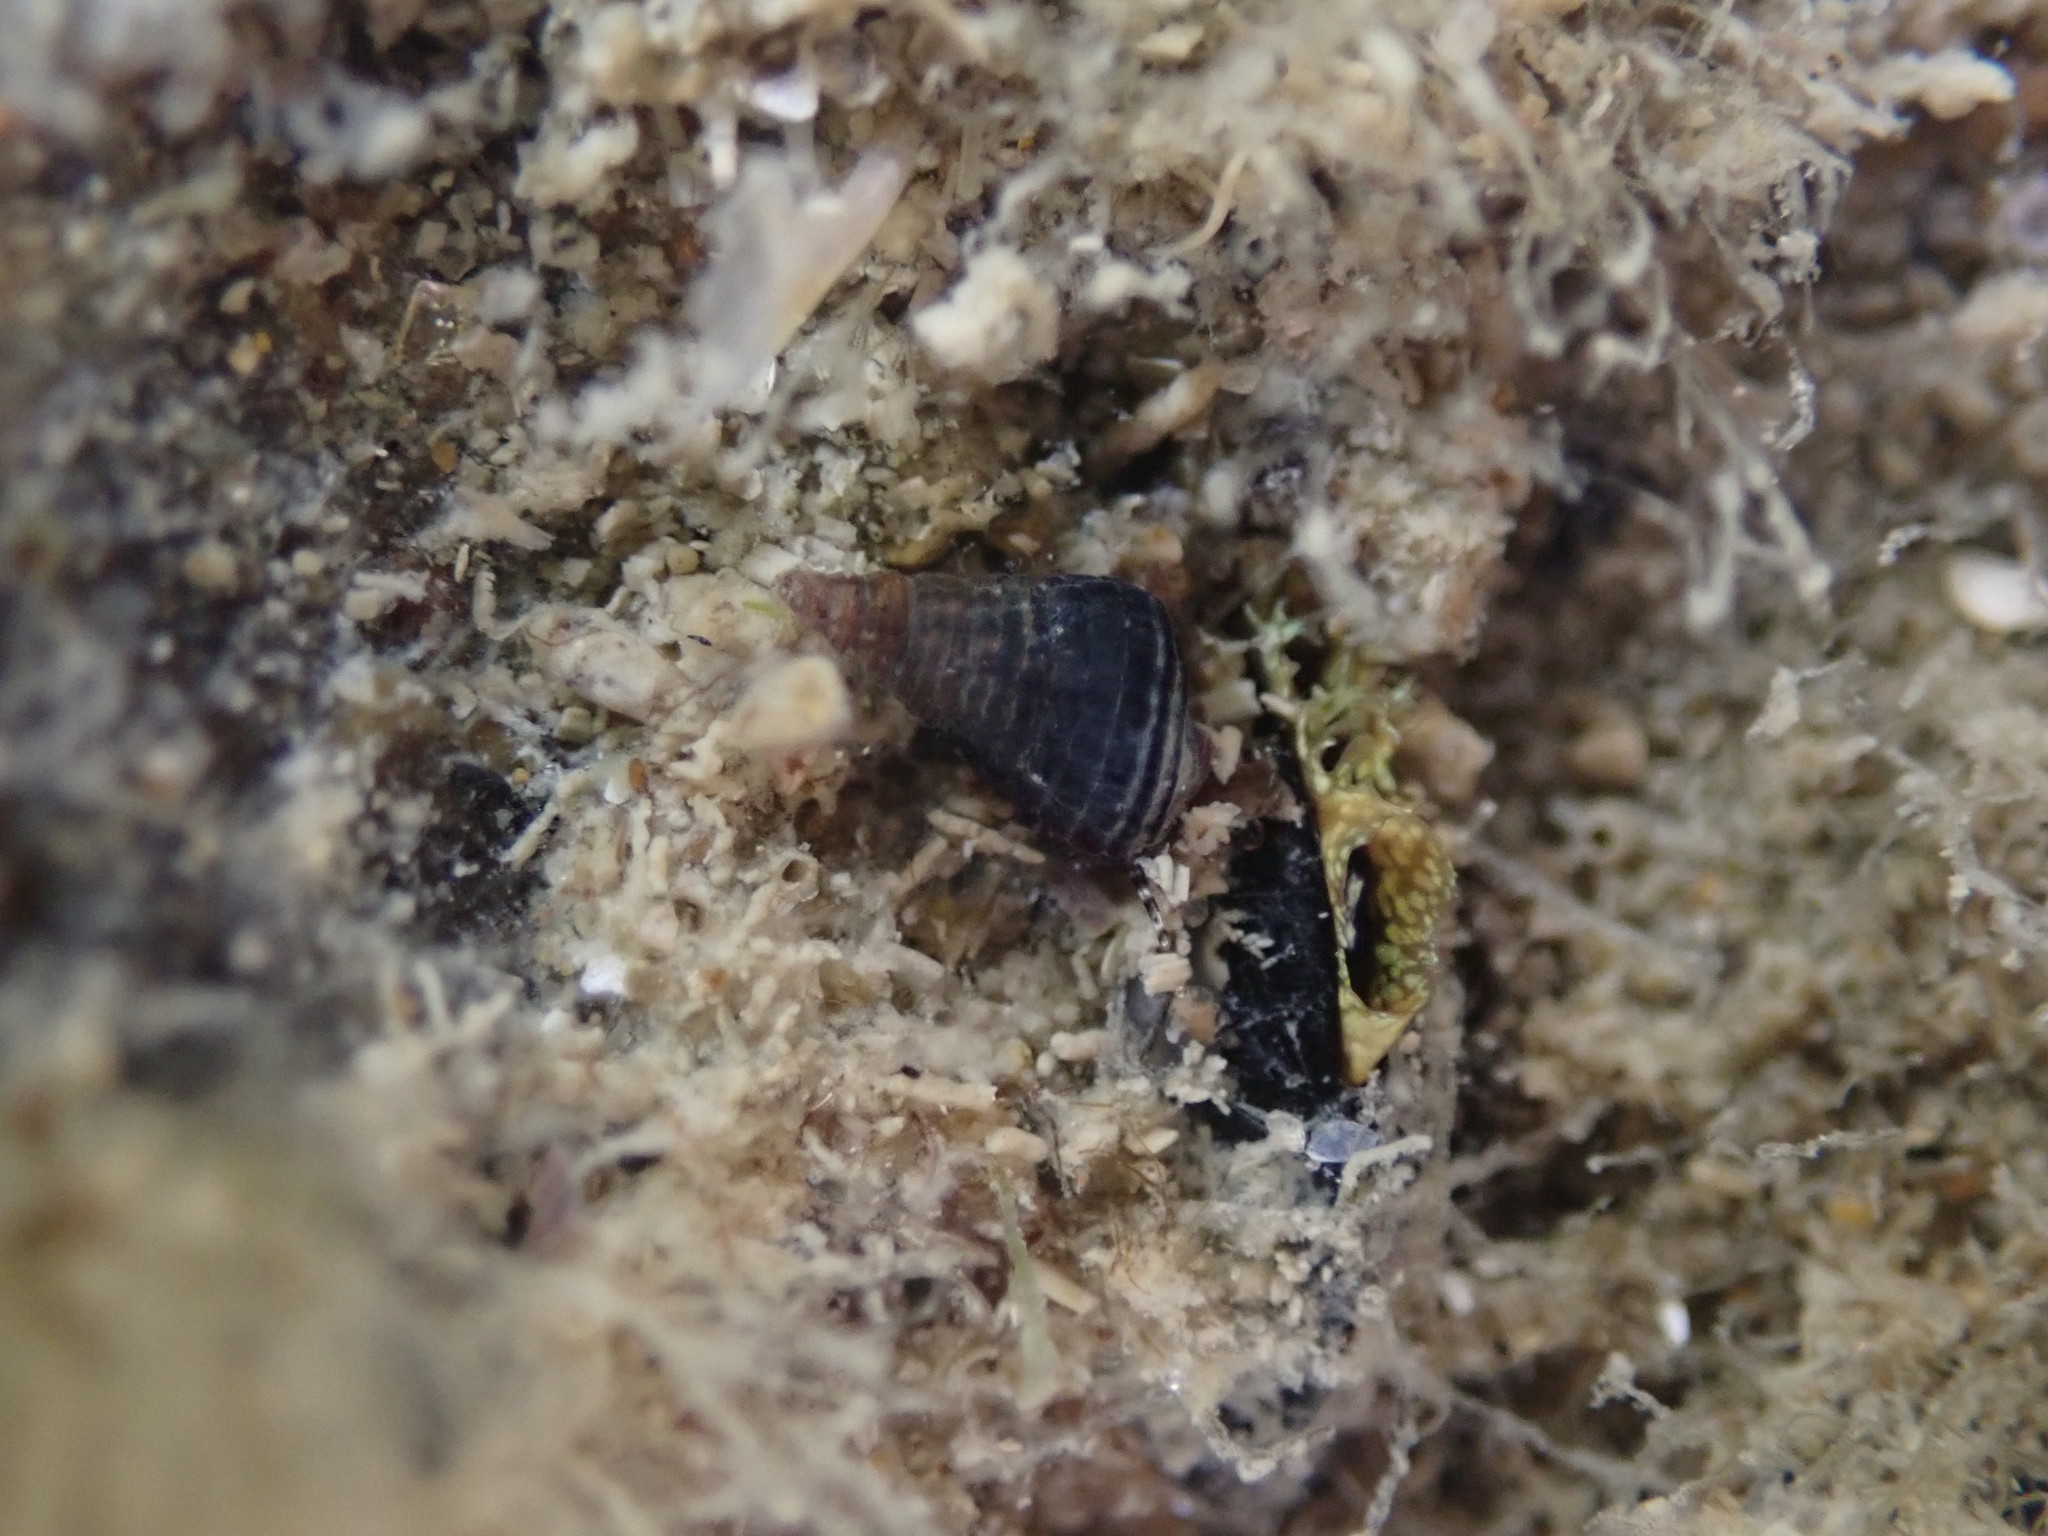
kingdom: Animalia
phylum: Mollusca
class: Gastropoda
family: Batillariidae
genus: Zeacumantus
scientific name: Zeacumantus subcarinatus
